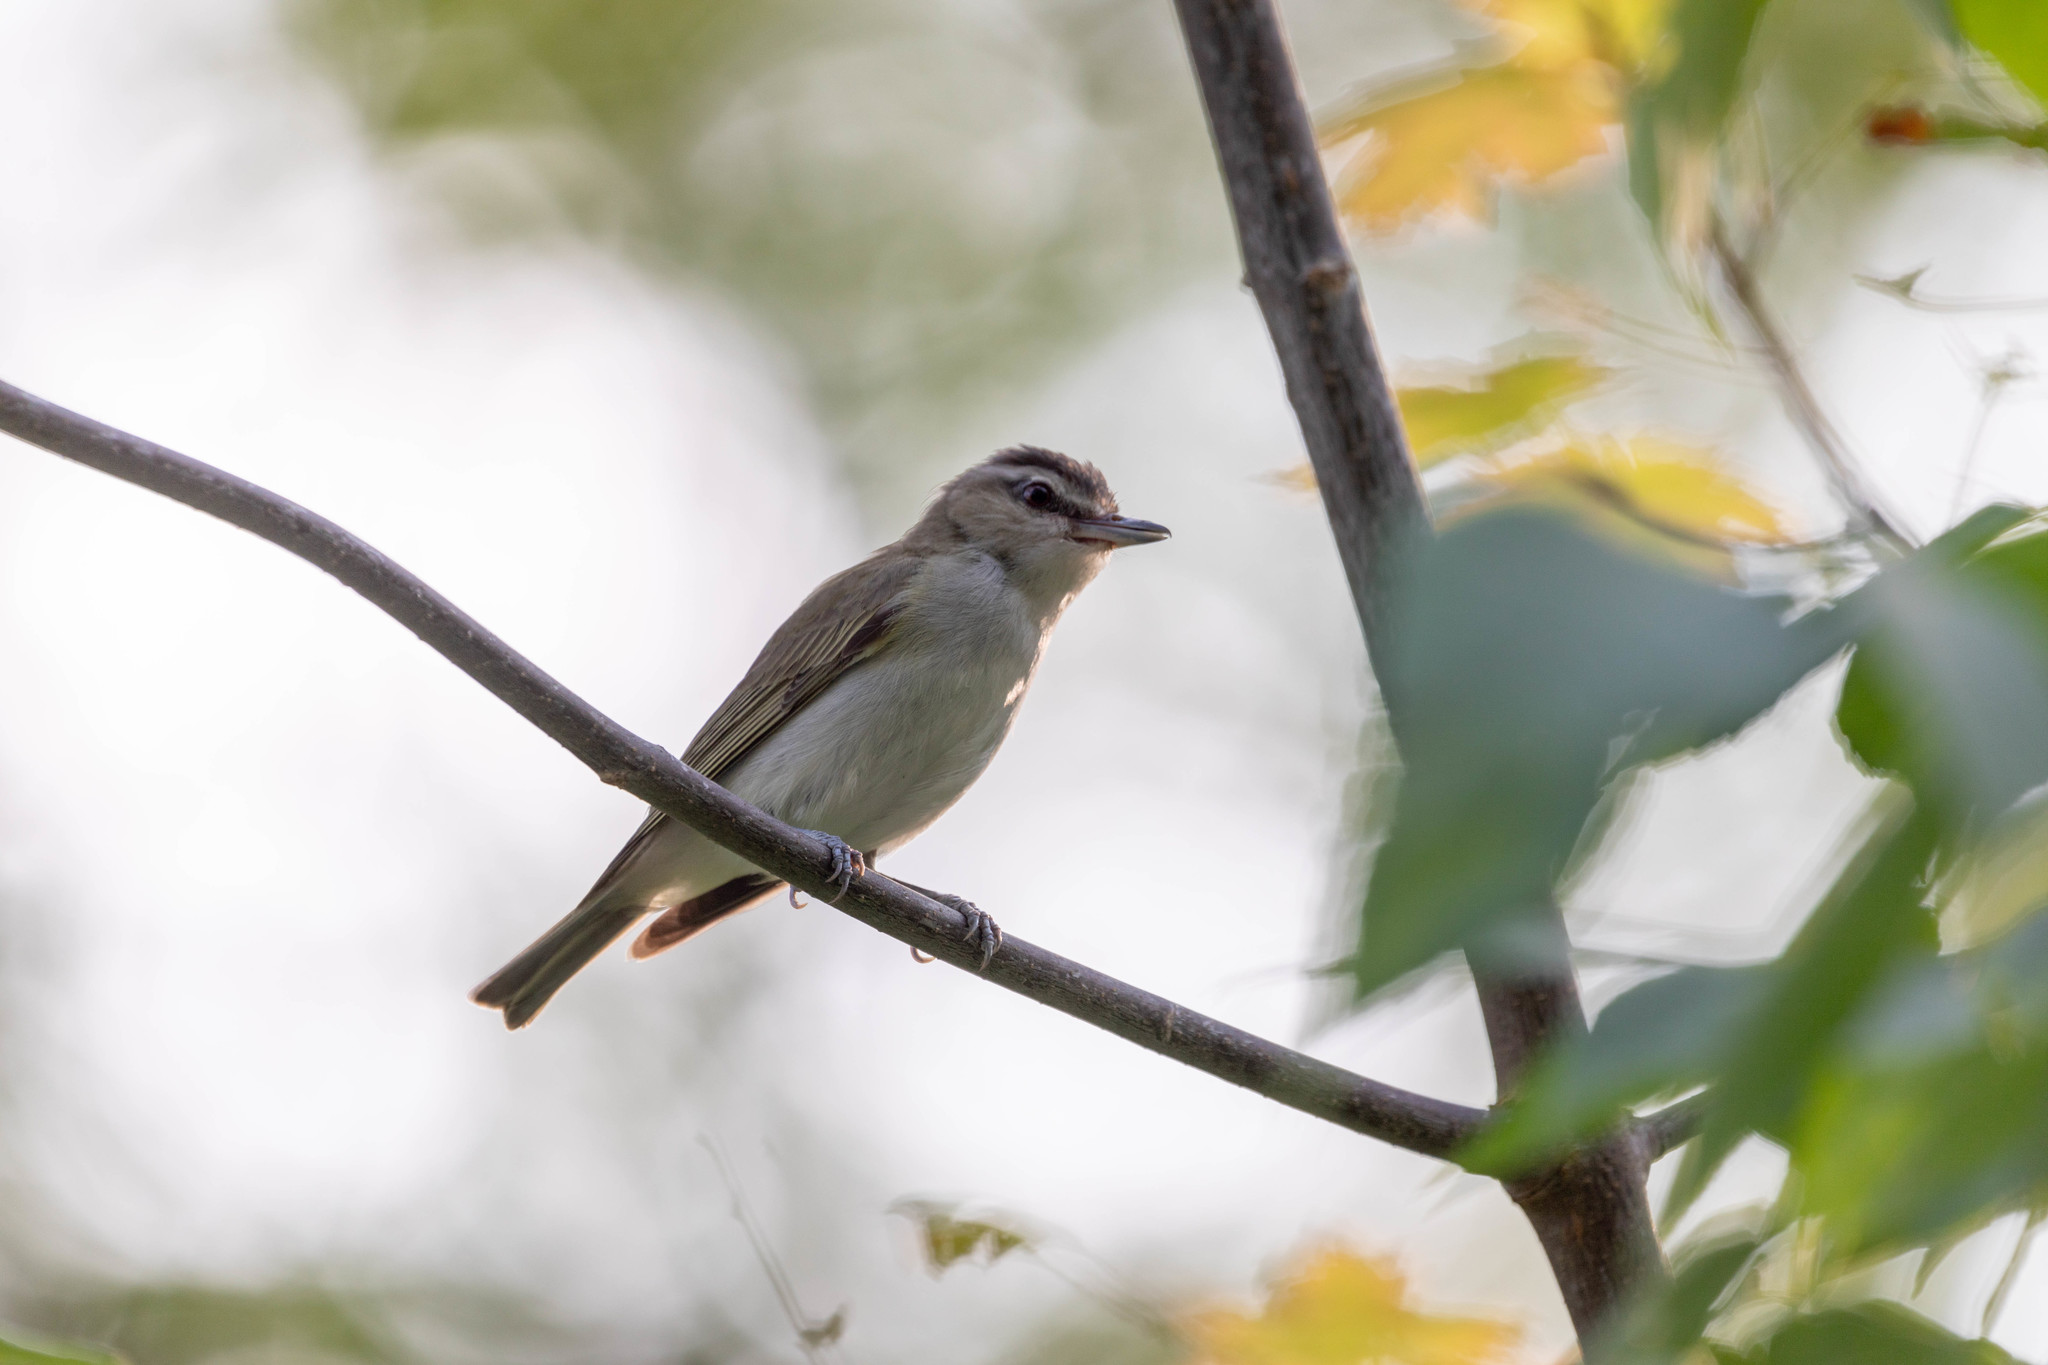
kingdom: Animalia
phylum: Chordata
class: Aves
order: Passeriformes
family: Vireonidae
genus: Vireo
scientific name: Vireo olivaceus
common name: Red-eyed vireo
